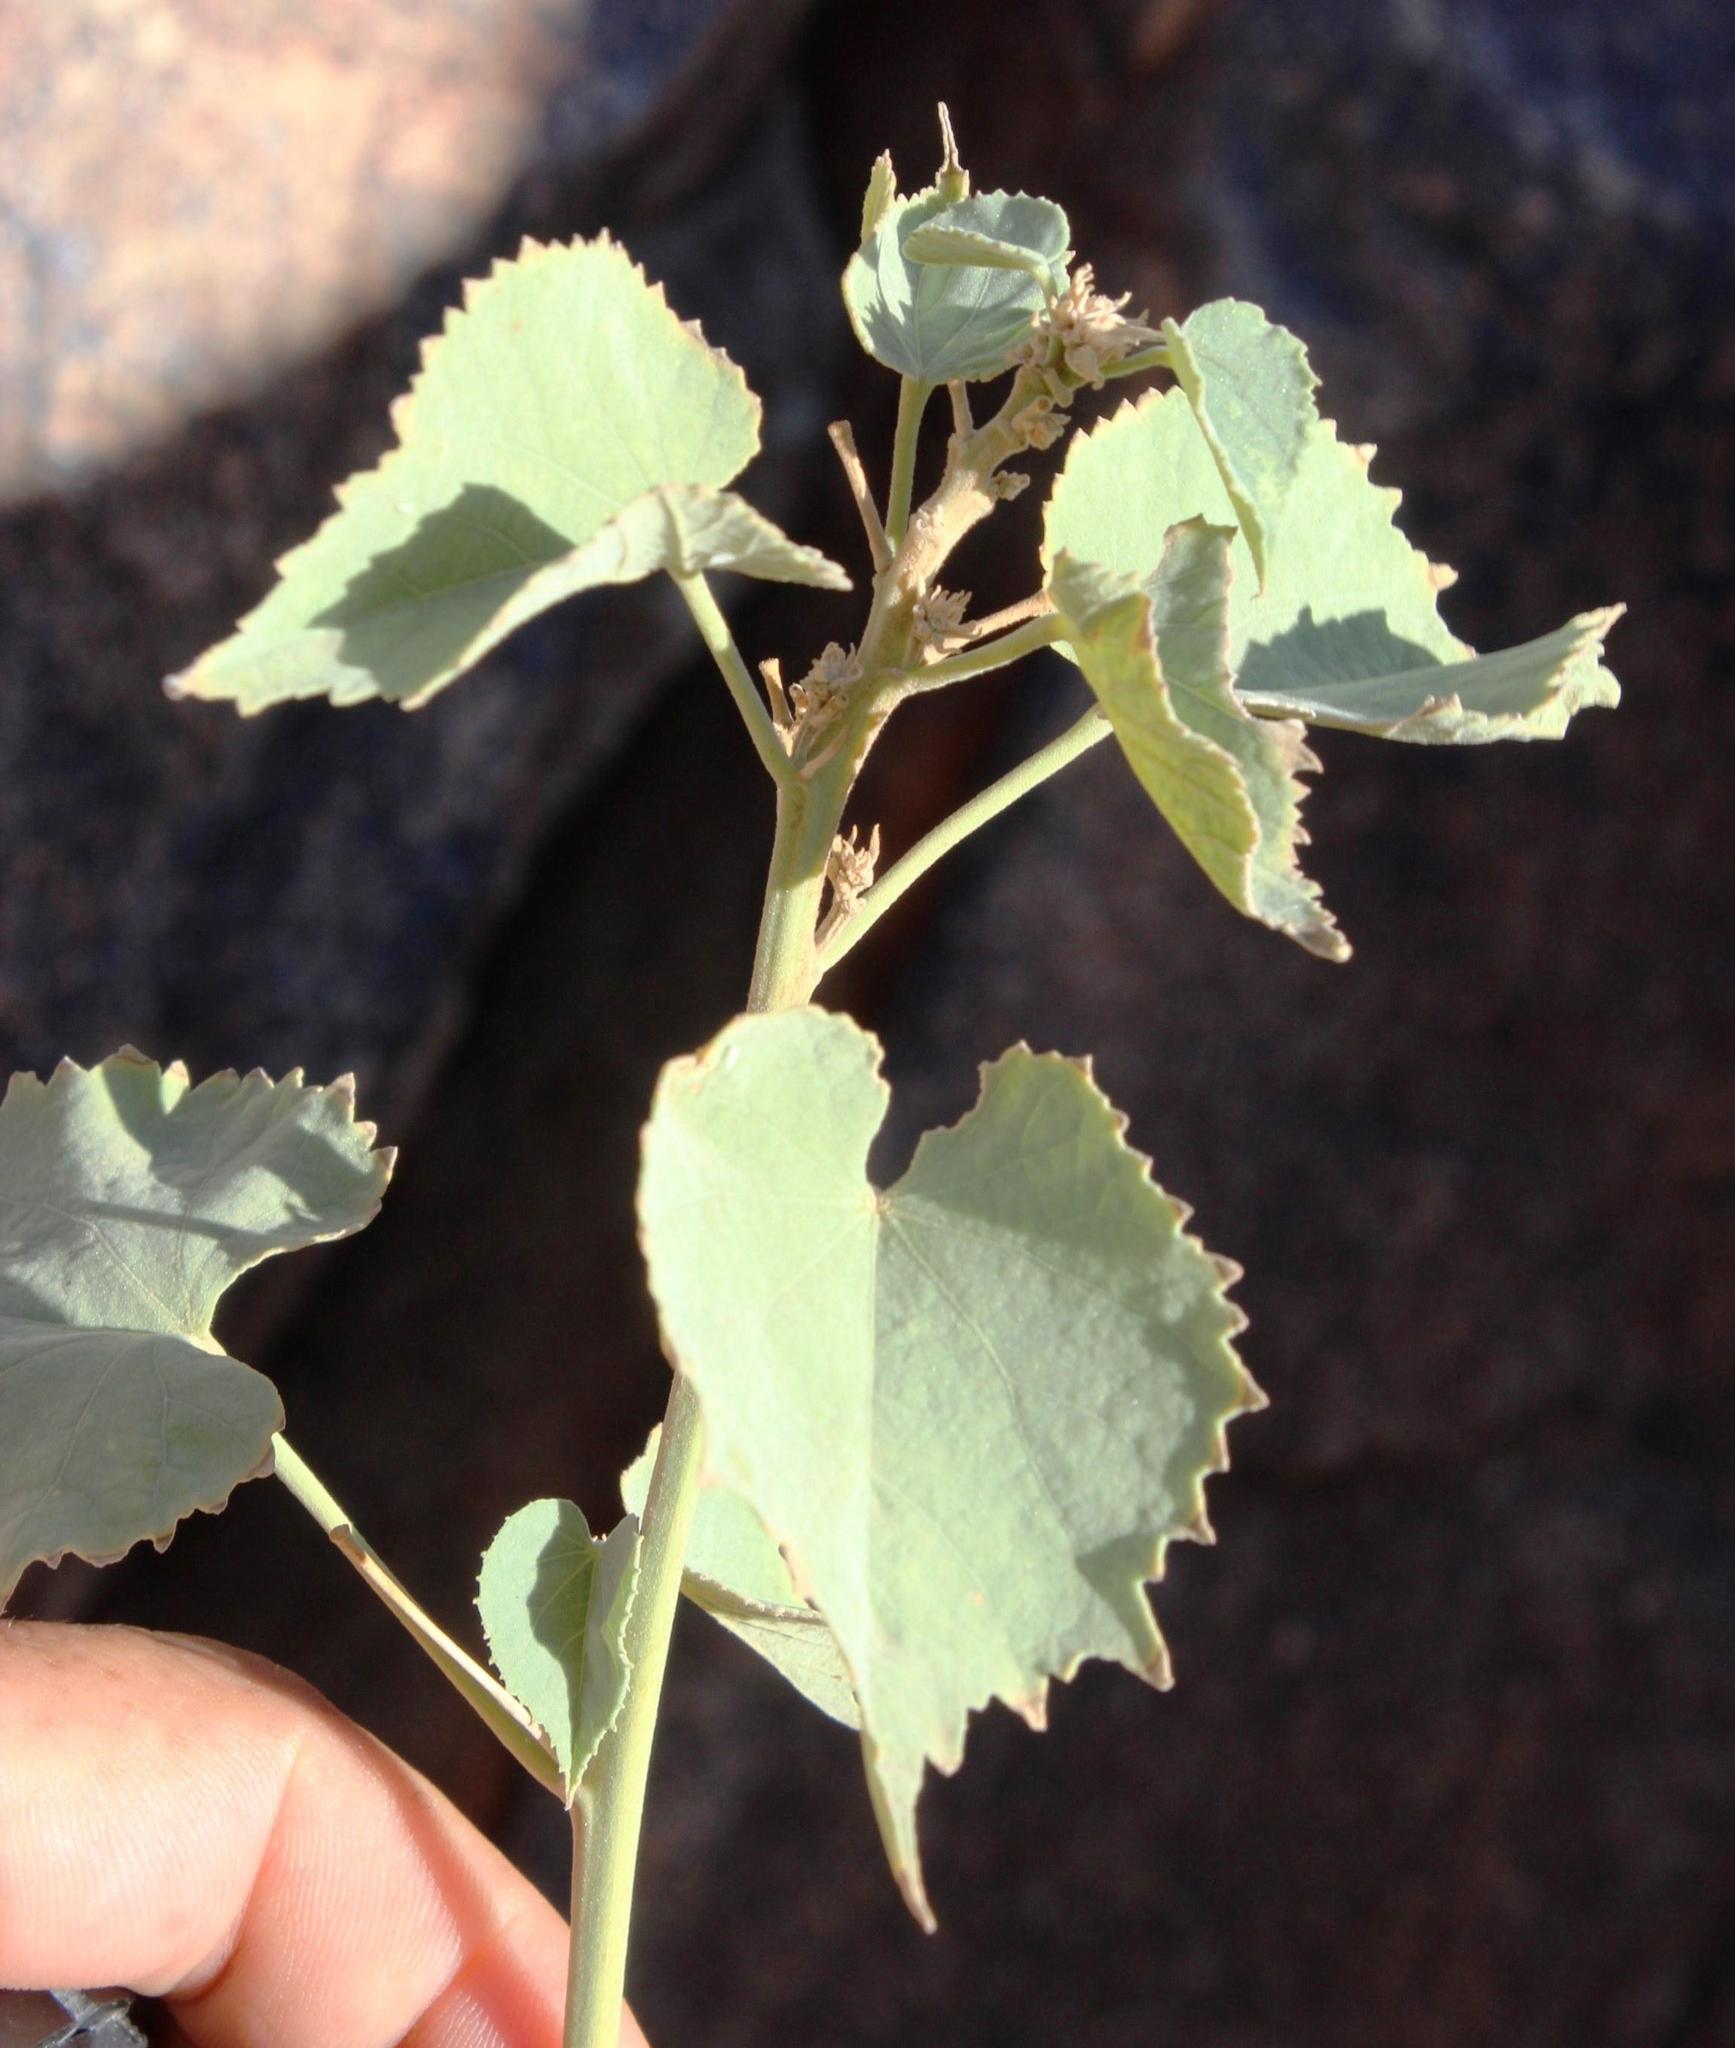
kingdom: Plantae
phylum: Tracheophyta
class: Magnoliopsida
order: Malvales
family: Malvaceae
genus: Abutilon
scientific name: Abutilon pycnodon
